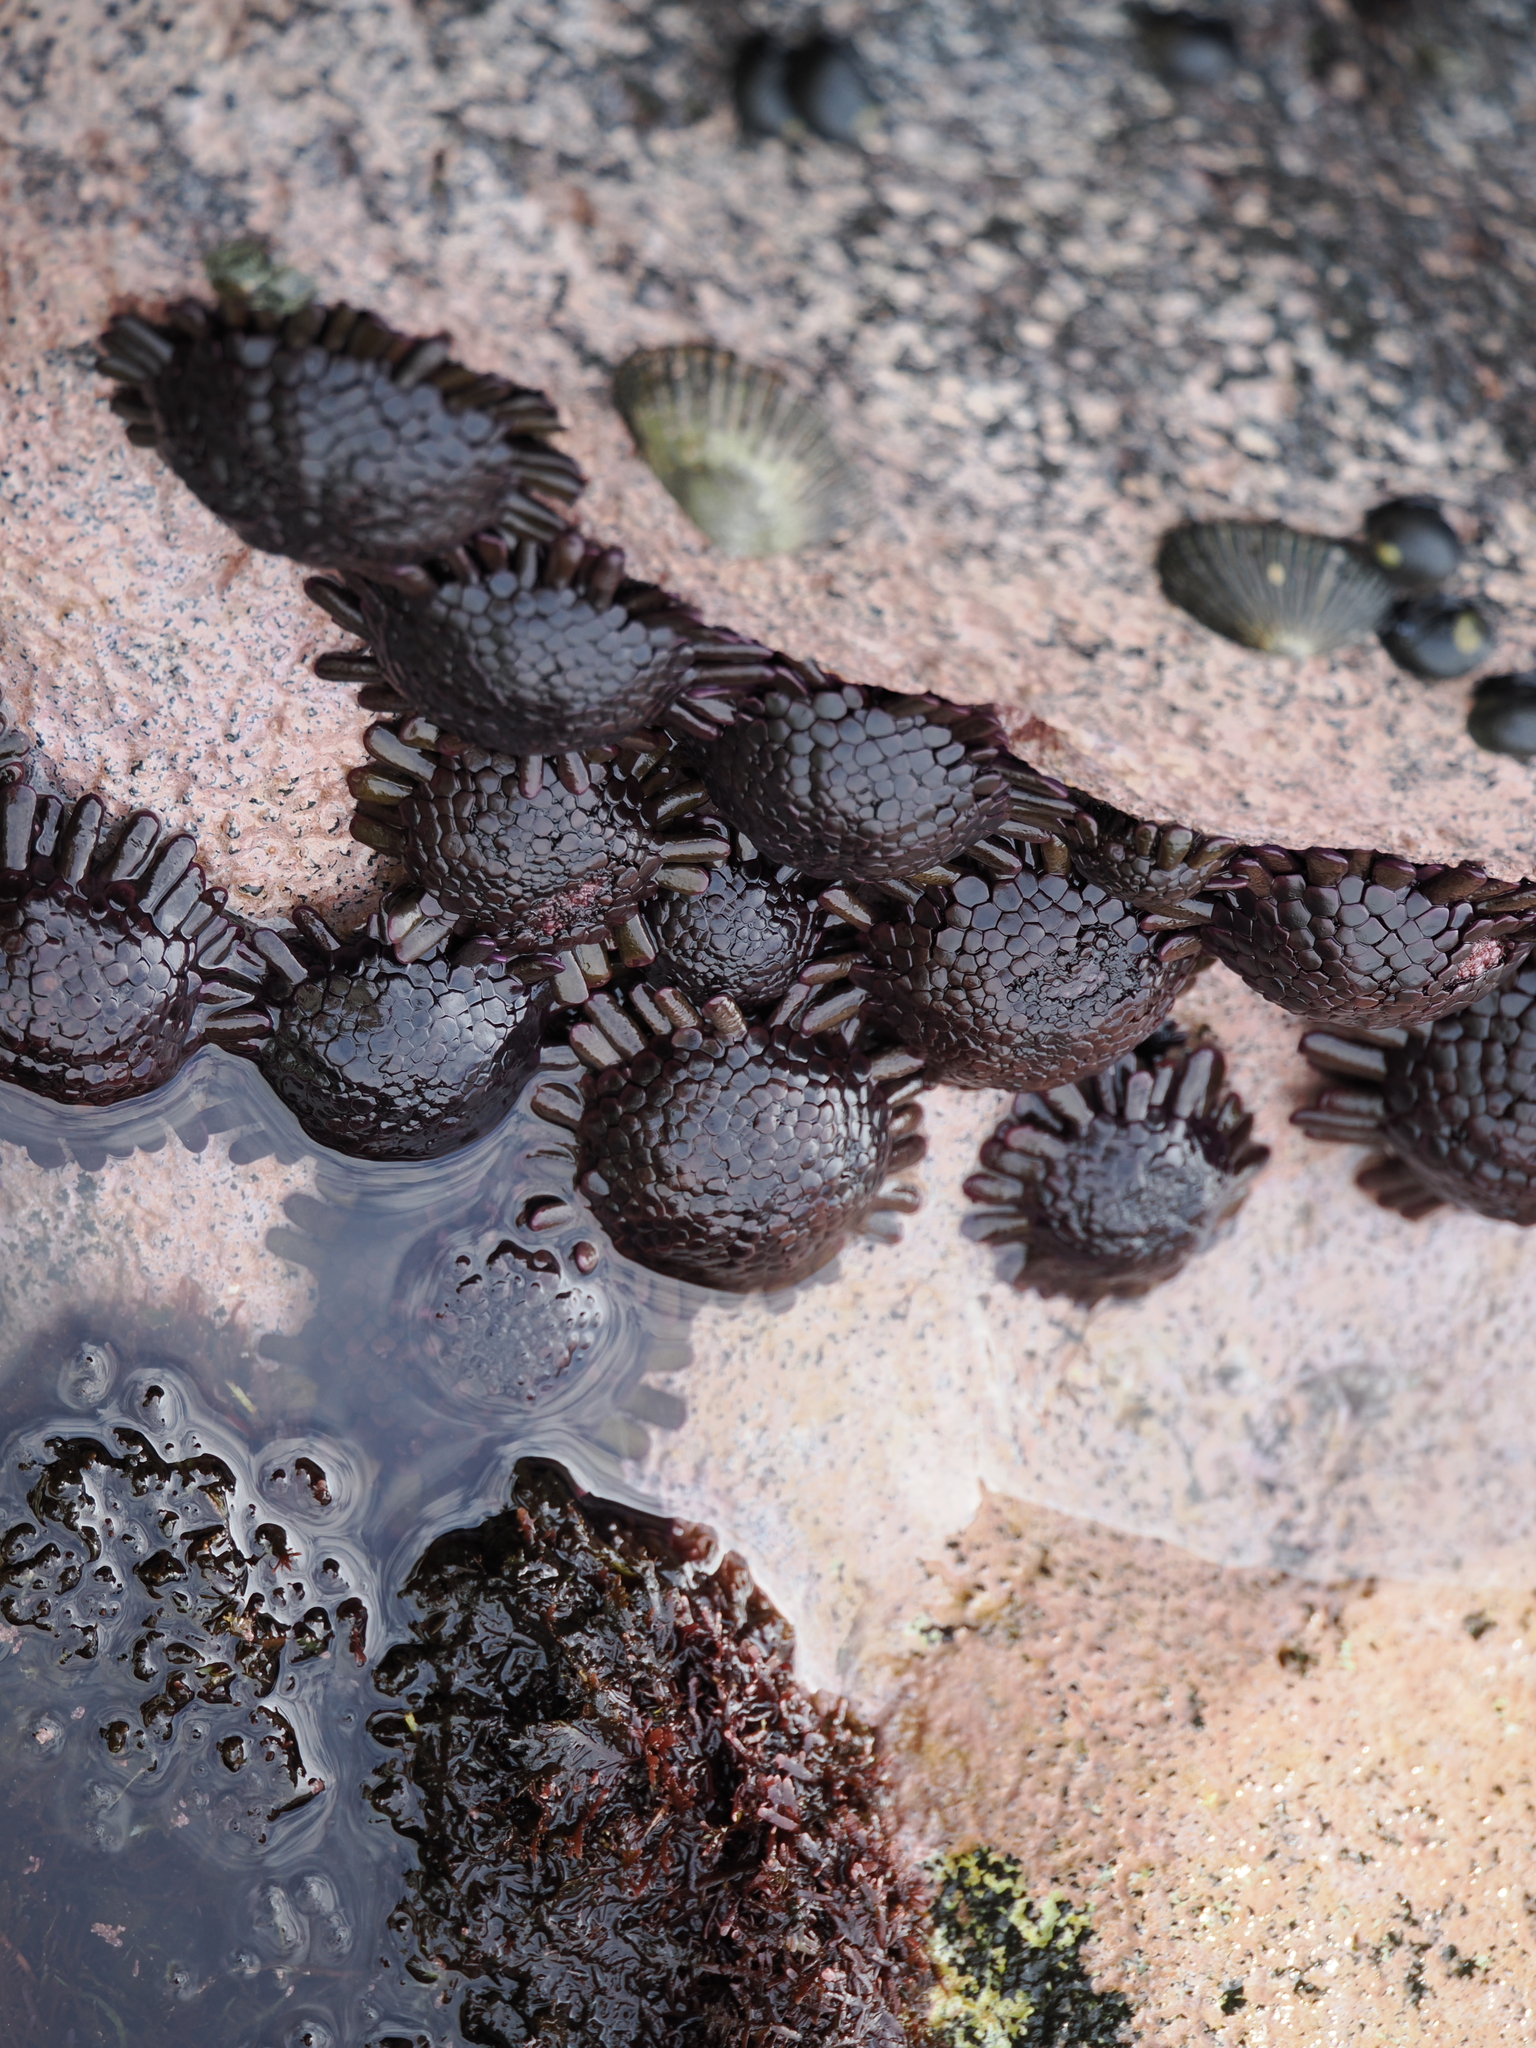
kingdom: Animalia
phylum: Echinodermata
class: Echinoidea
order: Camarodonta
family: Echinometridae
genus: Colobocentrotus
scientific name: Colobocentrotus atratus
